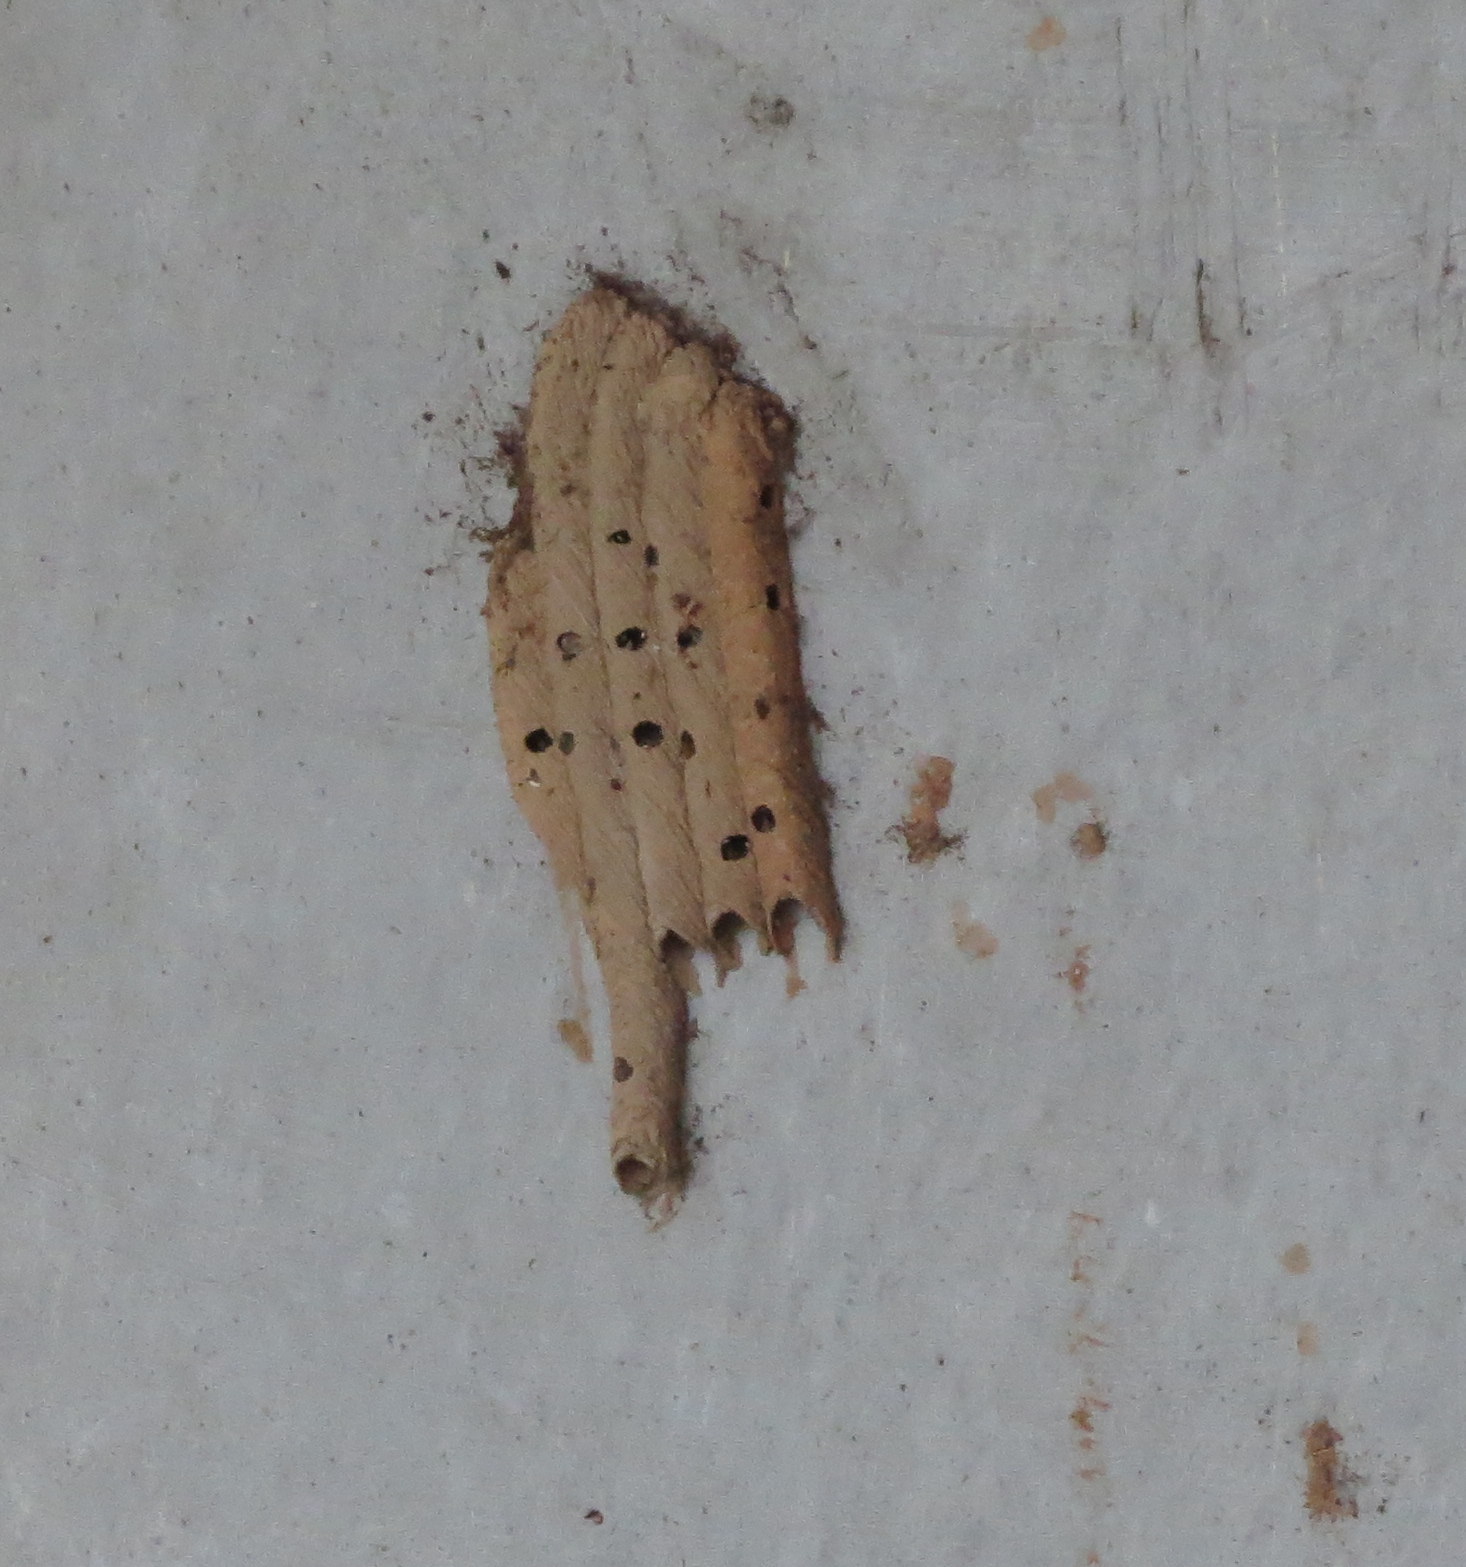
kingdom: Animalia
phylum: Arthropoda
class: Insecta
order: Hymenoptera
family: Crabronidae
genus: Trypoxylon
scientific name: Trypoxylon politum
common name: Organ-pipe mud-dauber wasp
